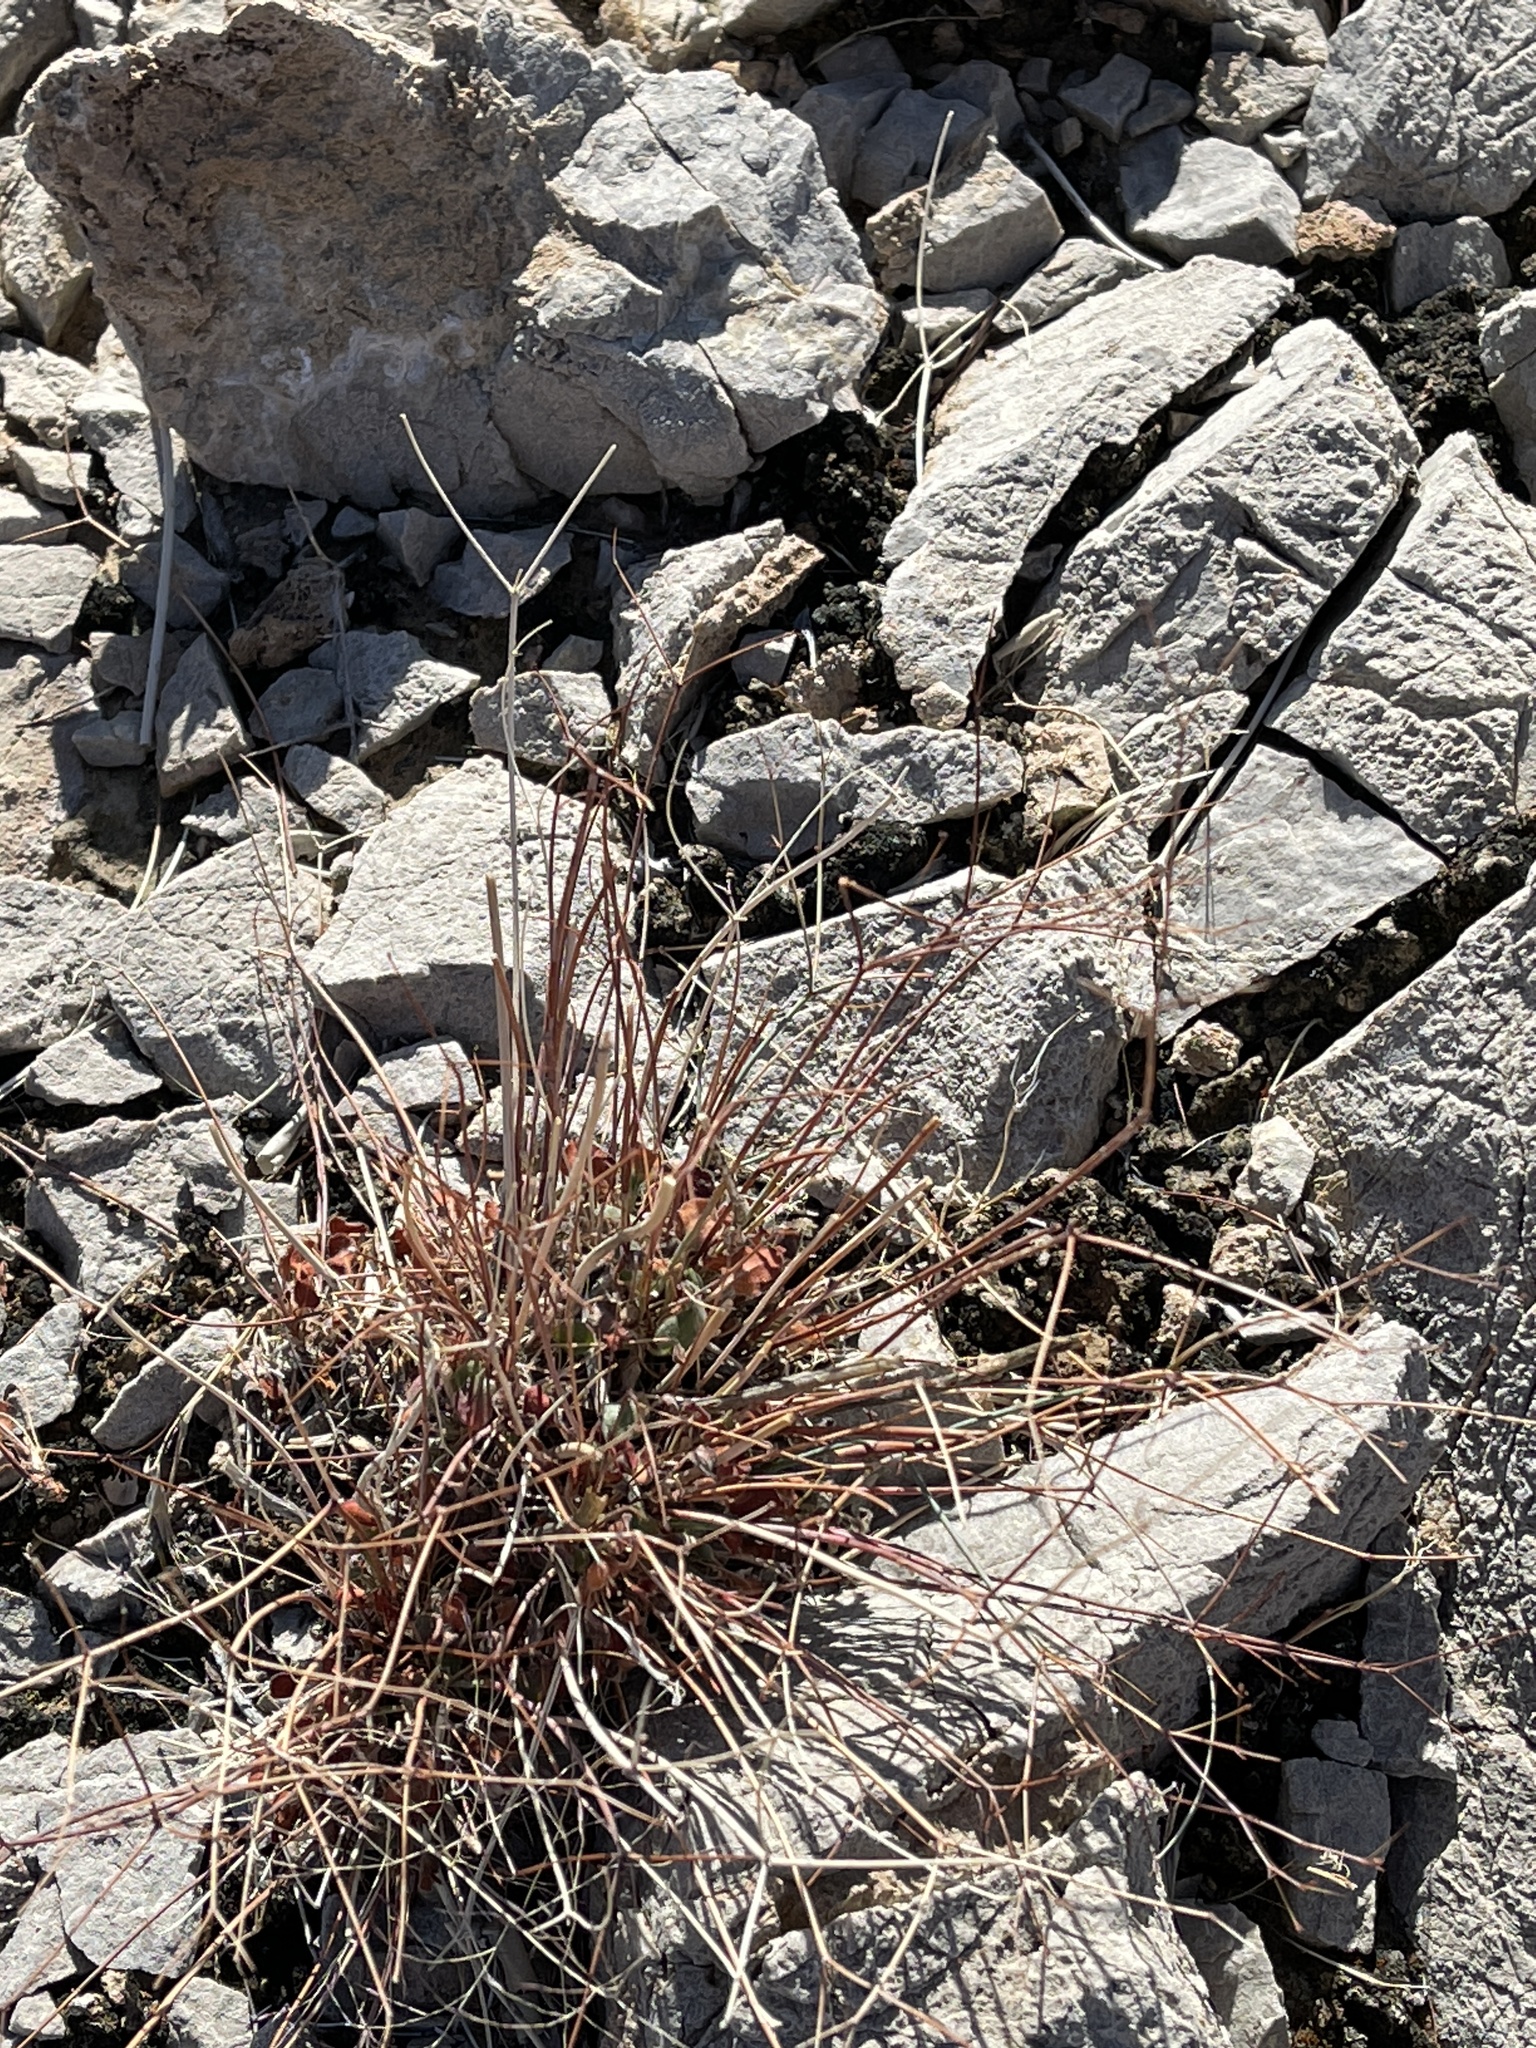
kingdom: Plantae
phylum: Tracheophyta
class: Magnoliopsida
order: Caryophyllales
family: Polygonaceae
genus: Eriogonum
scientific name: Eriogonum inflatum
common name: Desert trumpet
